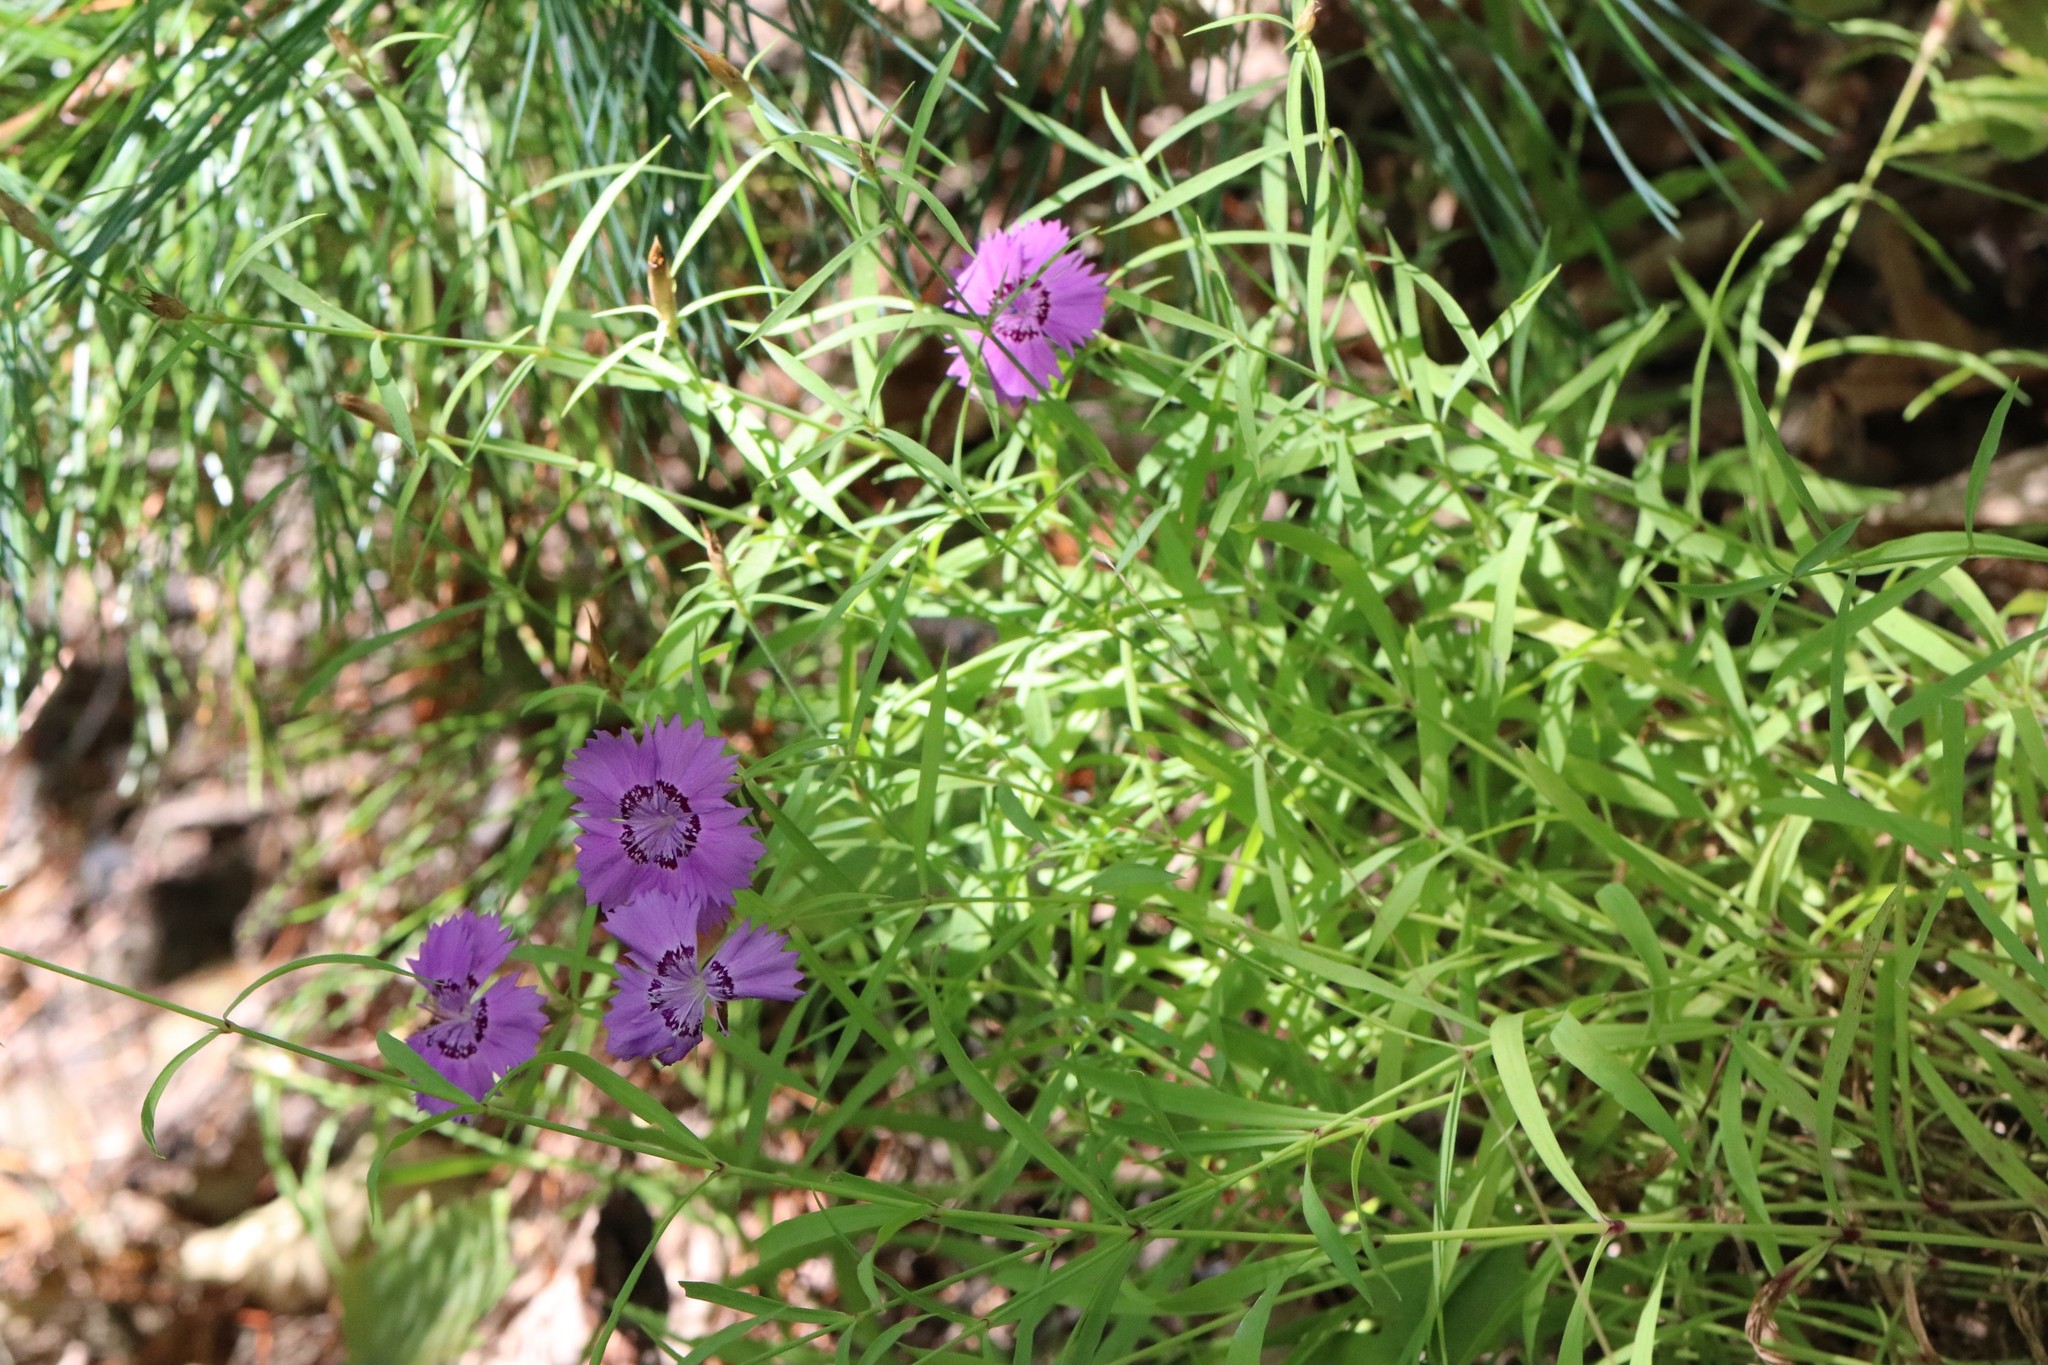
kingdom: Plantae
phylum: Tracheophyta
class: Magnoliopsida
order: Caryophyllales
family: Caryophyllaceae
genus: Dianthus
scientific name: Dianthus chinensis
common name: Rainbow pink
